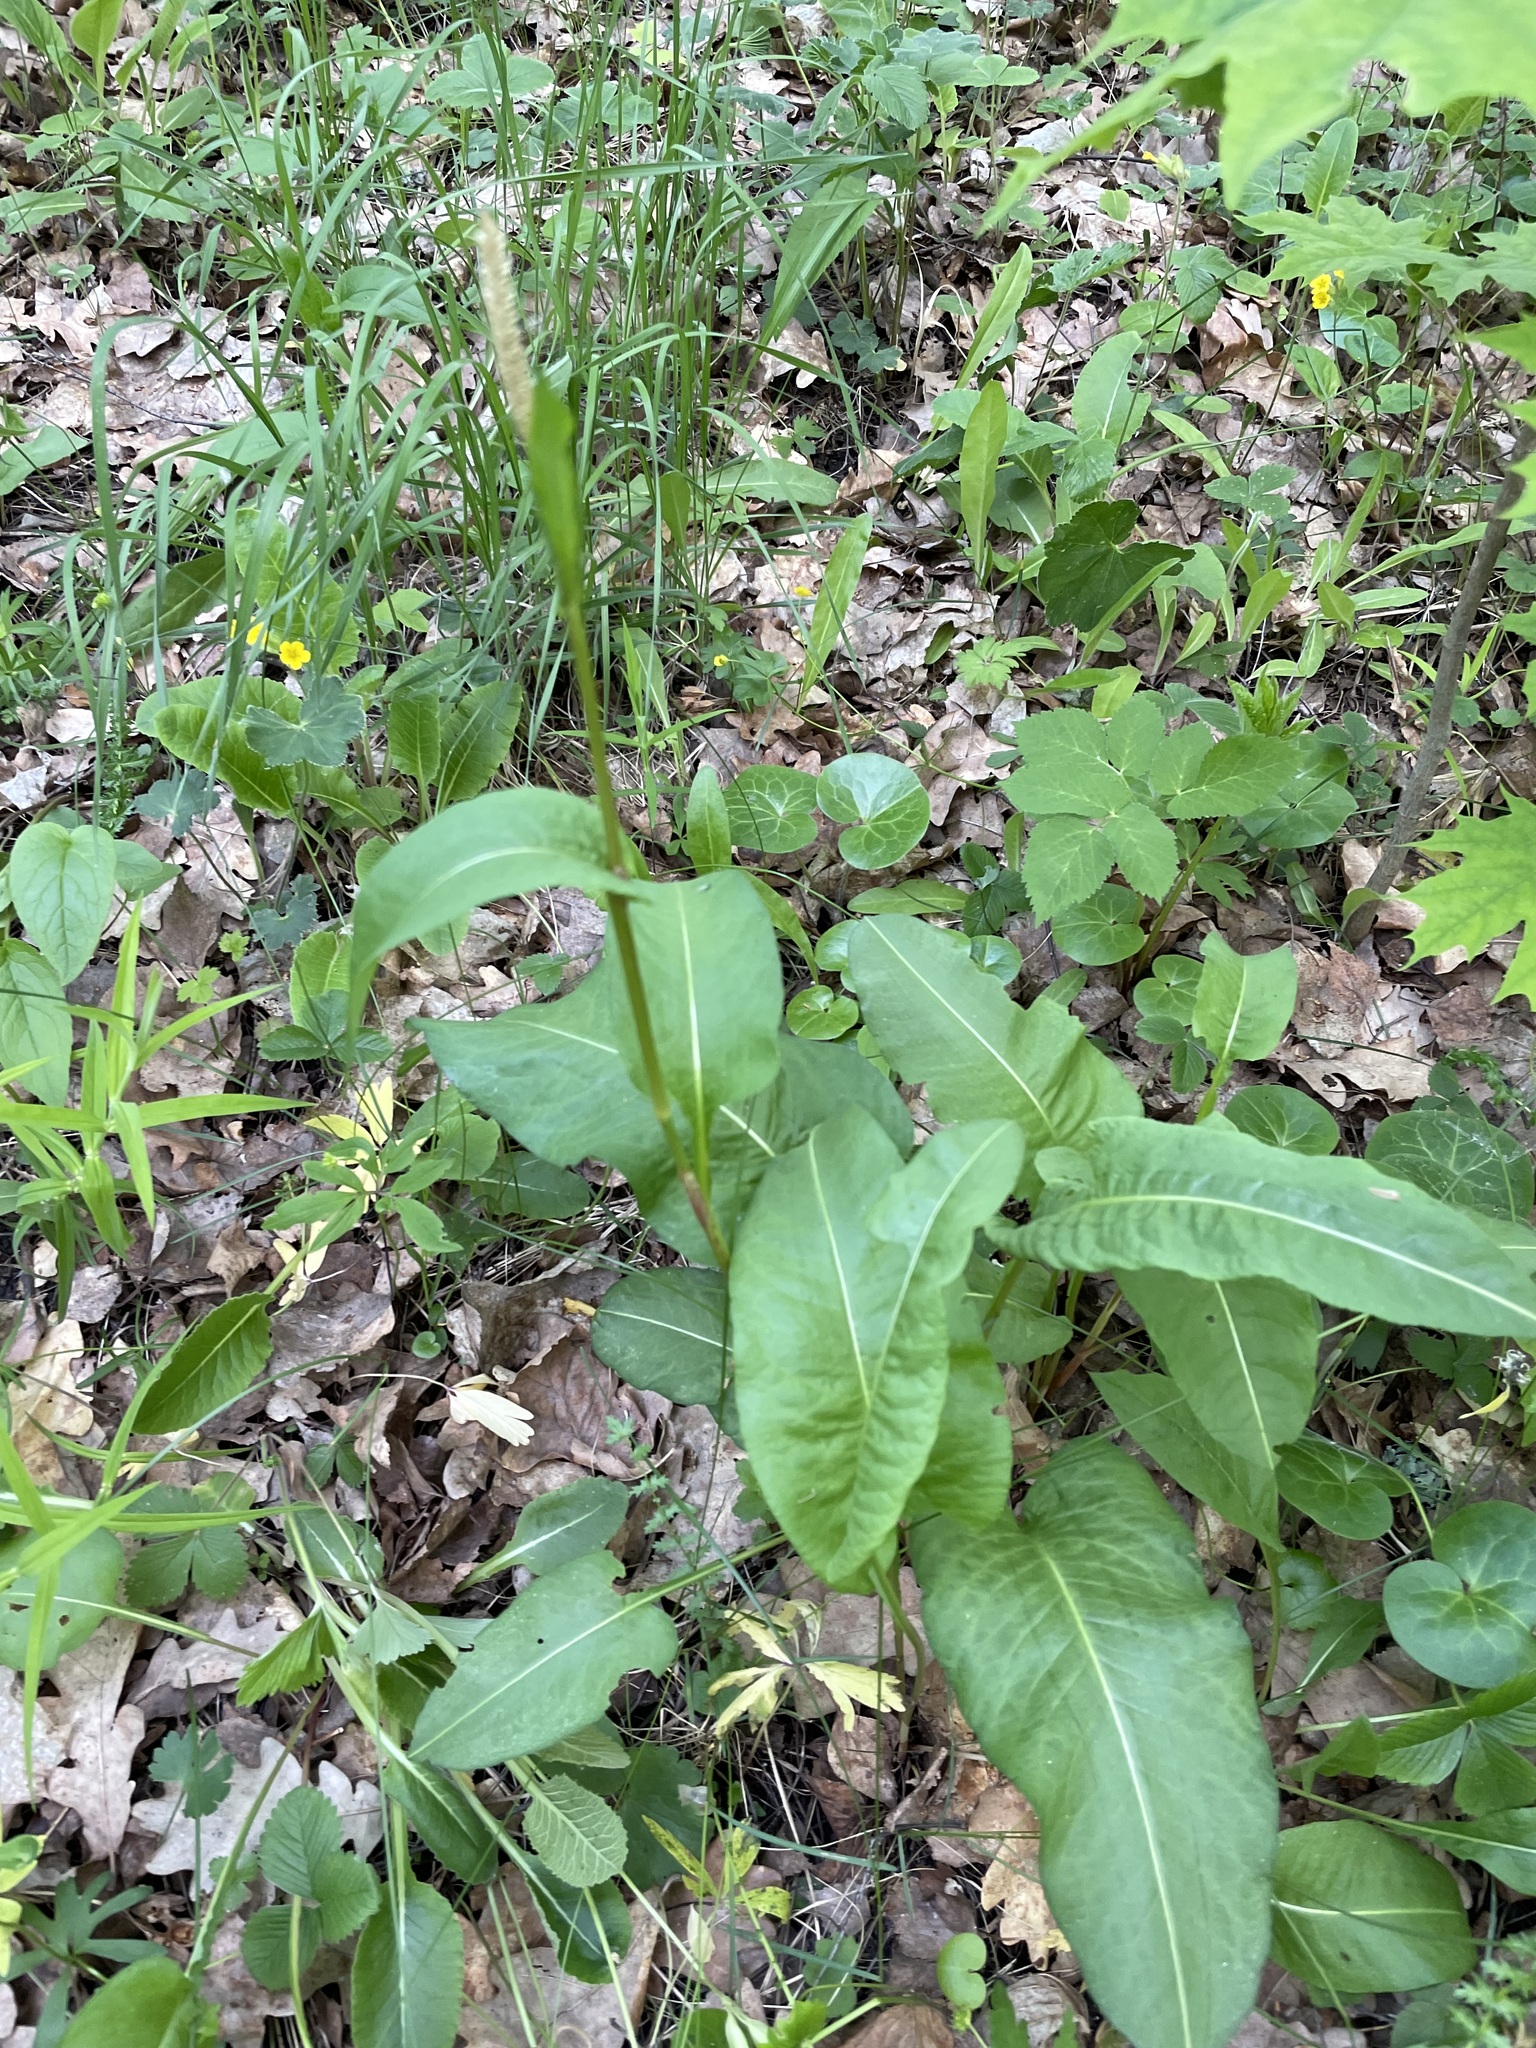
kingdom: Plantae
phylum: Tracheophyta
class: Magnoliopsida
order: Caryophyllales
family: Polygonaceae
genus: Bistorta
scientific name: Bistorta officinalis
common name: Common bistort
